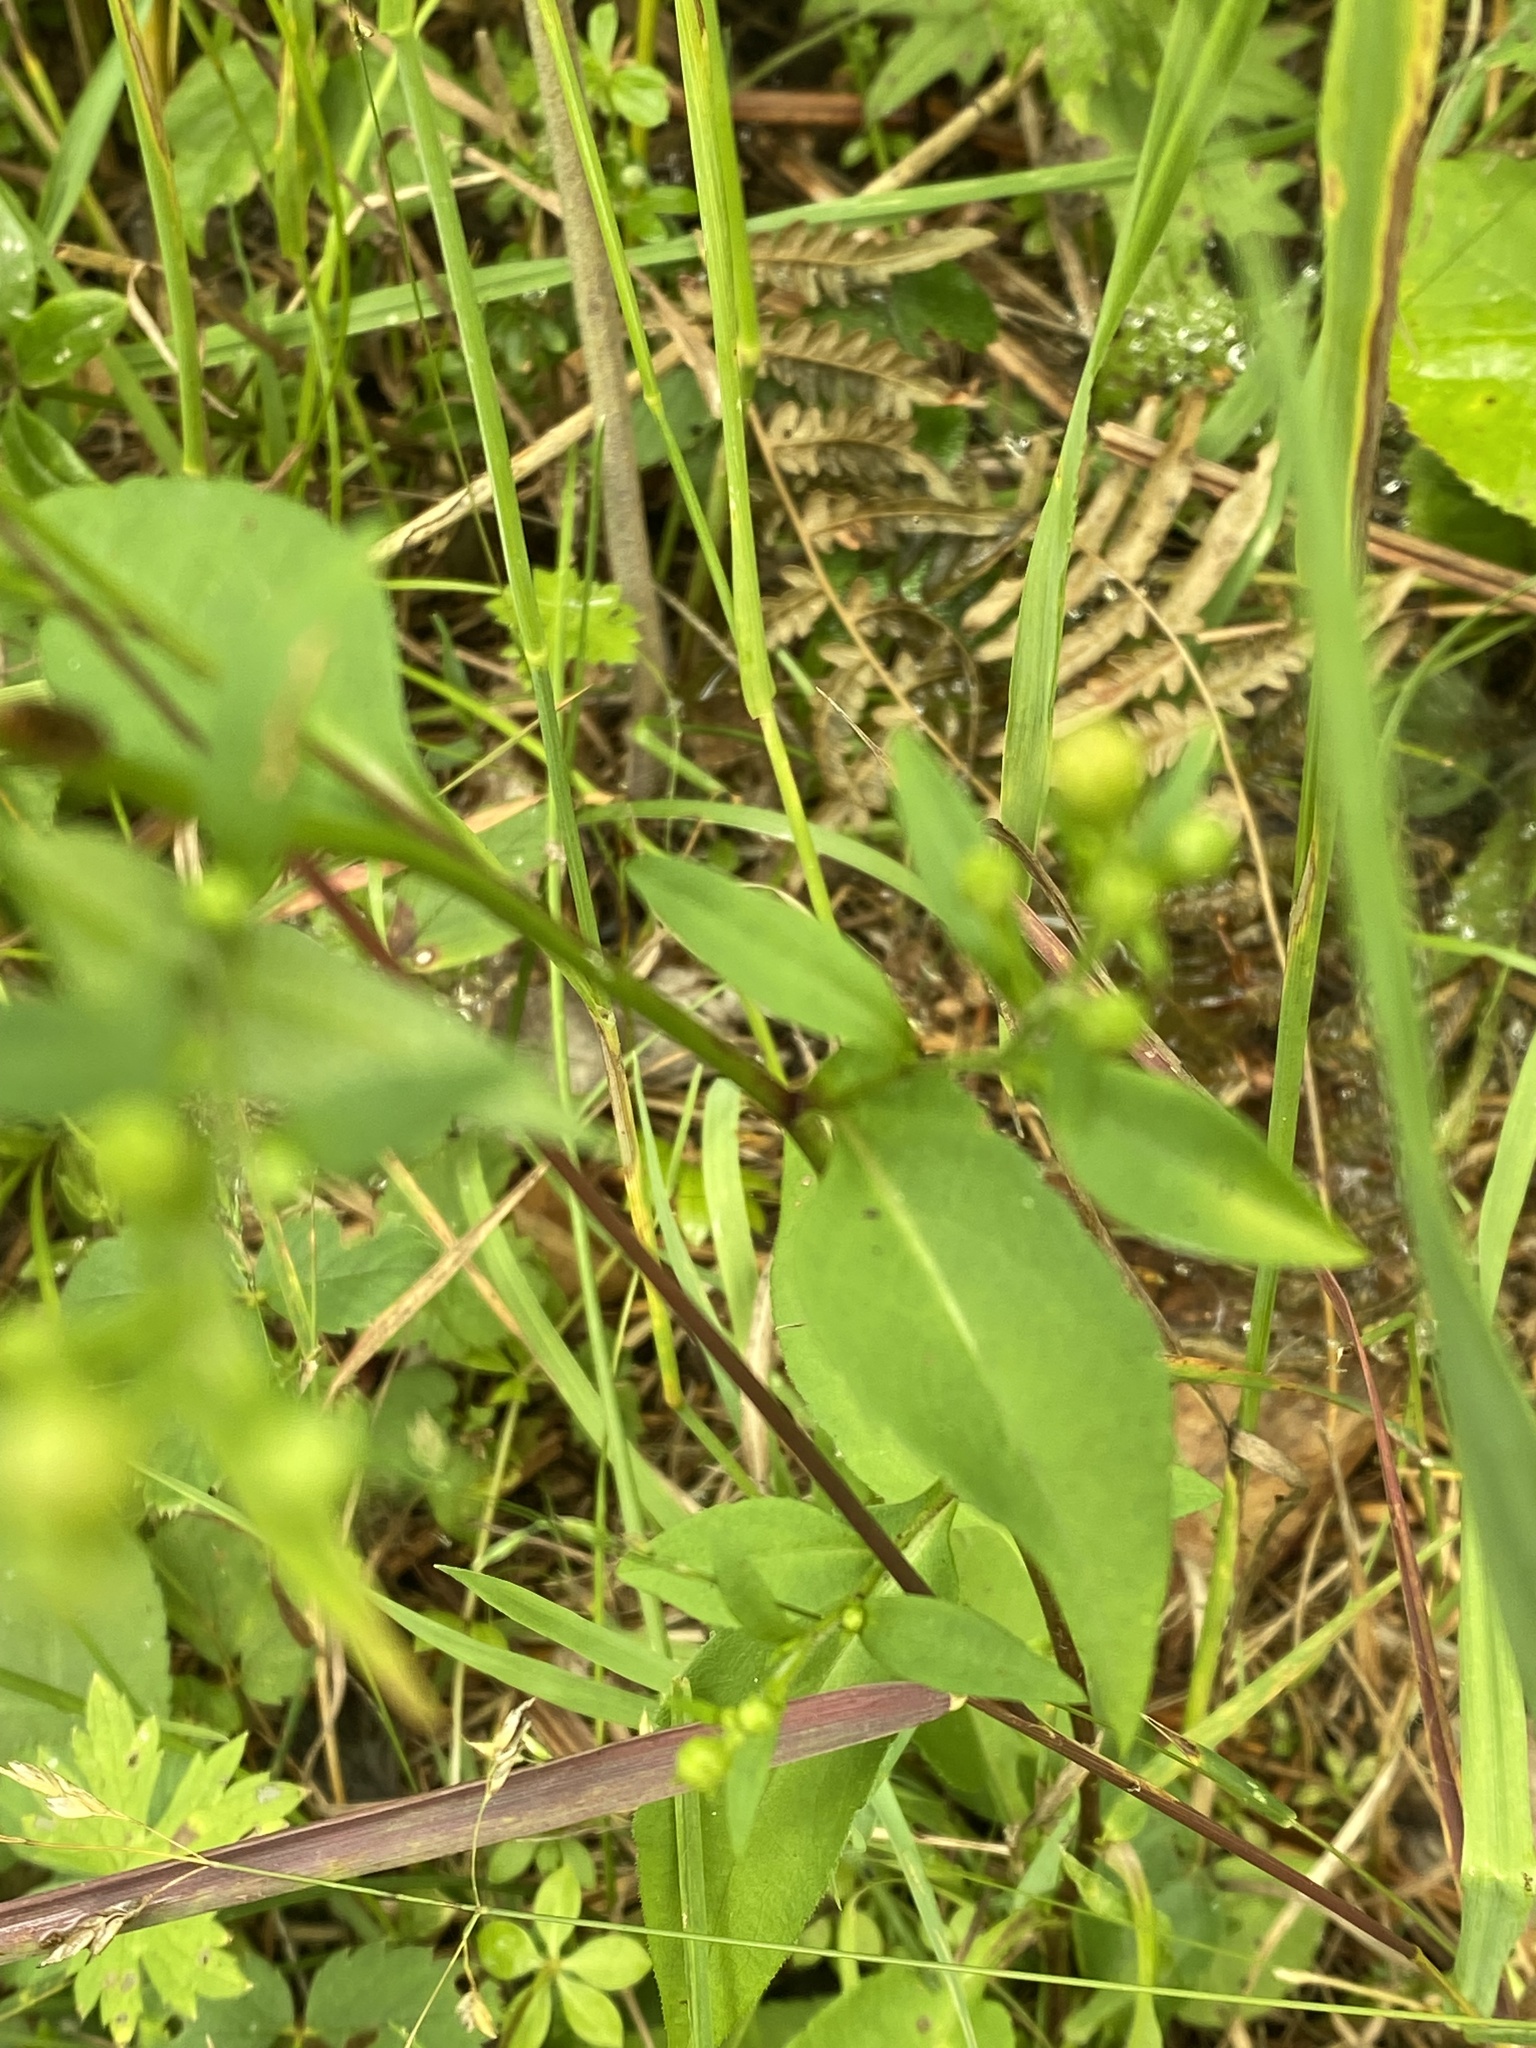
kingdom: Plantae
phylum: Tracheophyta
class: Magnoliopsida
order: Asterales
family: Asteraceae
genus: Symphyotrichum
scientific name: Symphyotrichum ciliolatum
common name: Fringed blue aster
